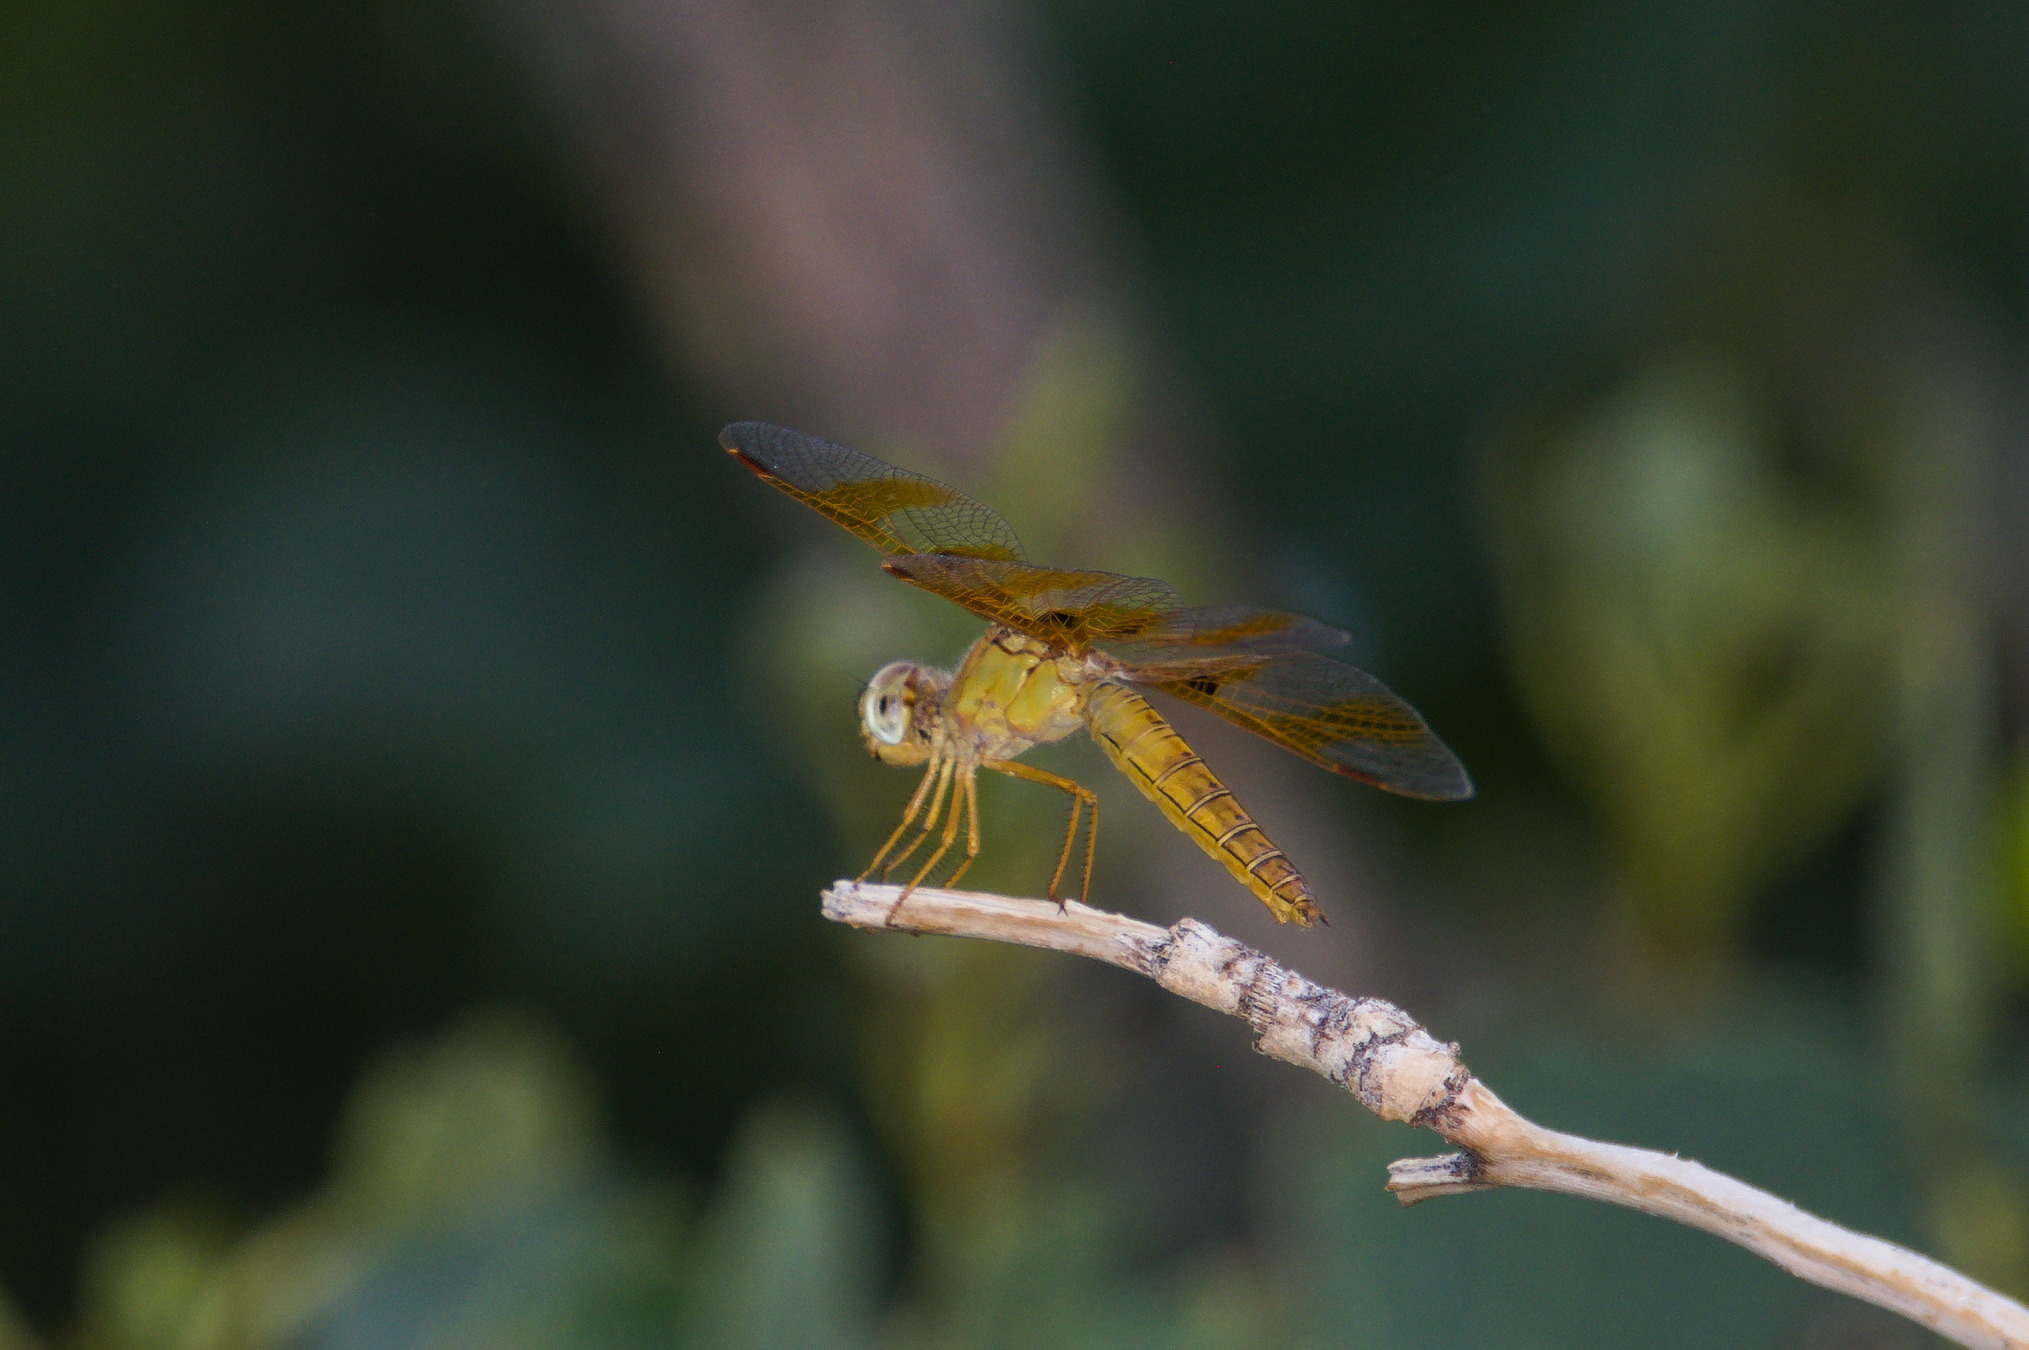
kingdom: Animalia
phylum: Arthropoda
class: Insecta
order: Odonata
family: Libellulidae
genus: Perithemis
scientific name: Perithemis intensa
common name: Mexican amberwing
